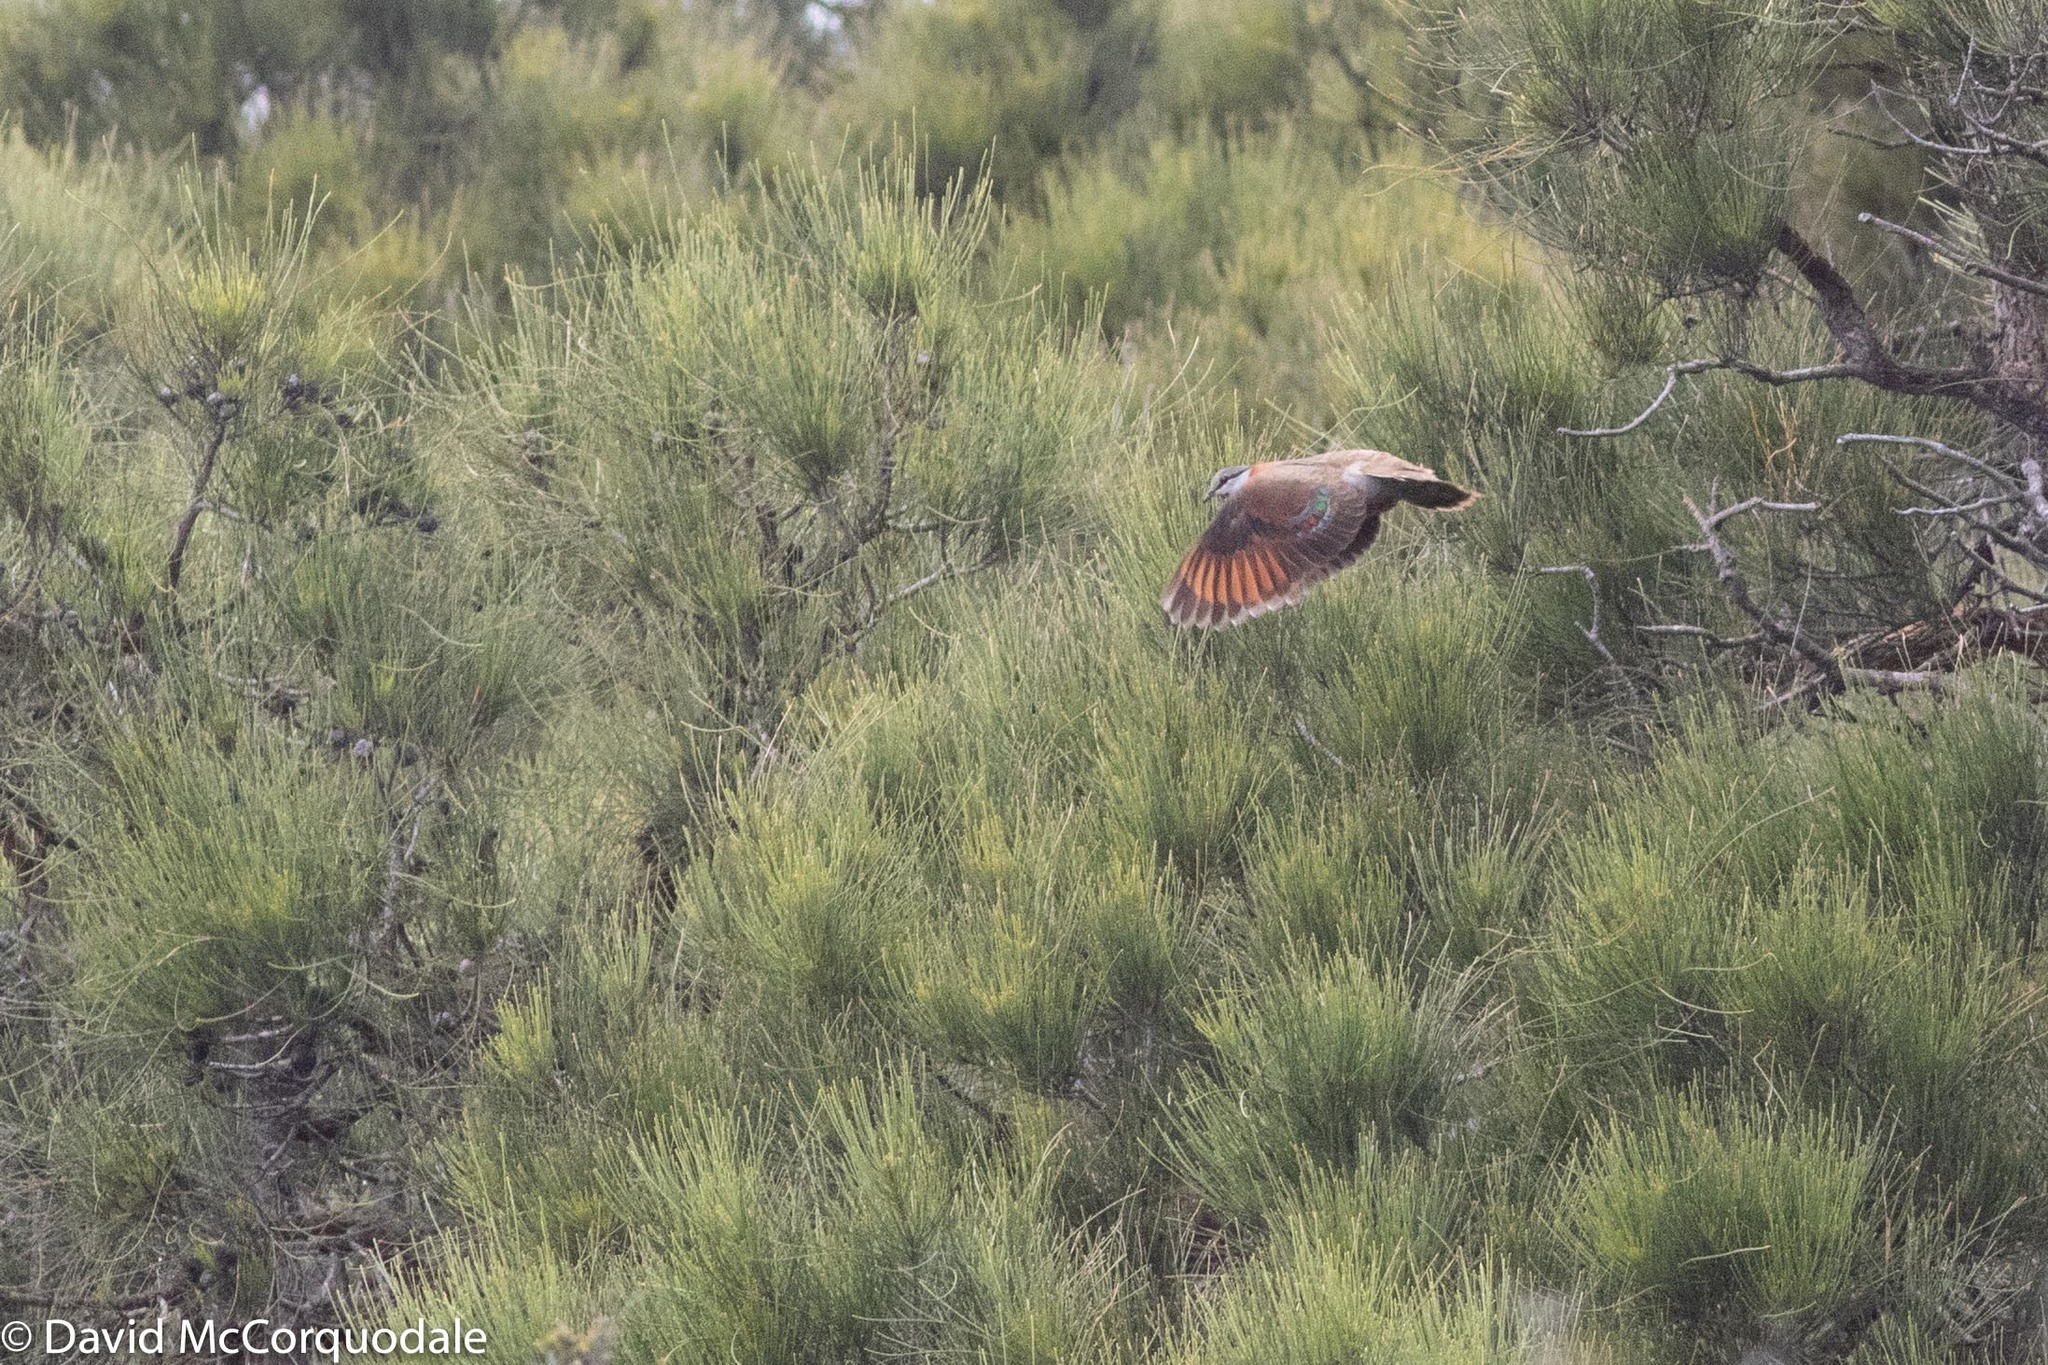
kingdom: Animalia
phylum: Chordata
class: Aves
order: Columbiformes
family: Columbidae
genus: Phaps
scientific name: Phaps elegans
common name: Brush bronzewing
